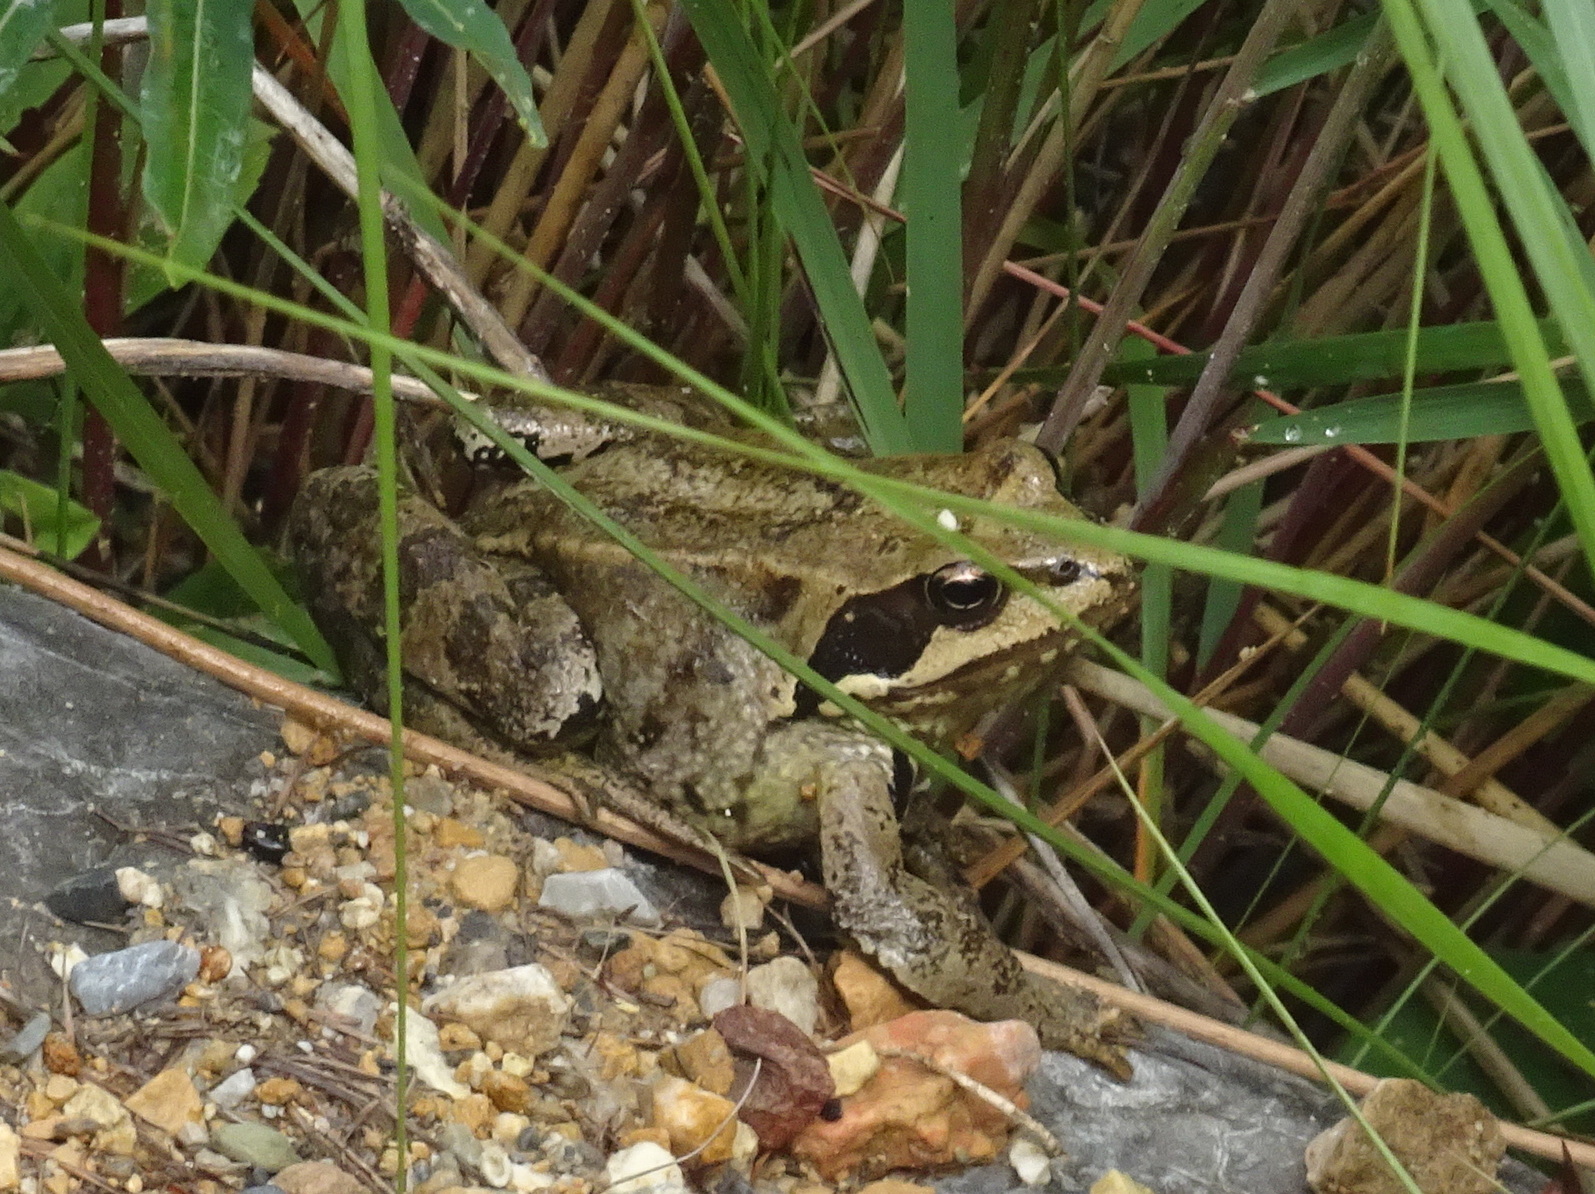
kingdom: Animalia
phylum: Chordata
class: Amphibia
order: Anura
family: Ranidae
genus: Rana
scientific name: Rana temporaria
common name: Common frog
